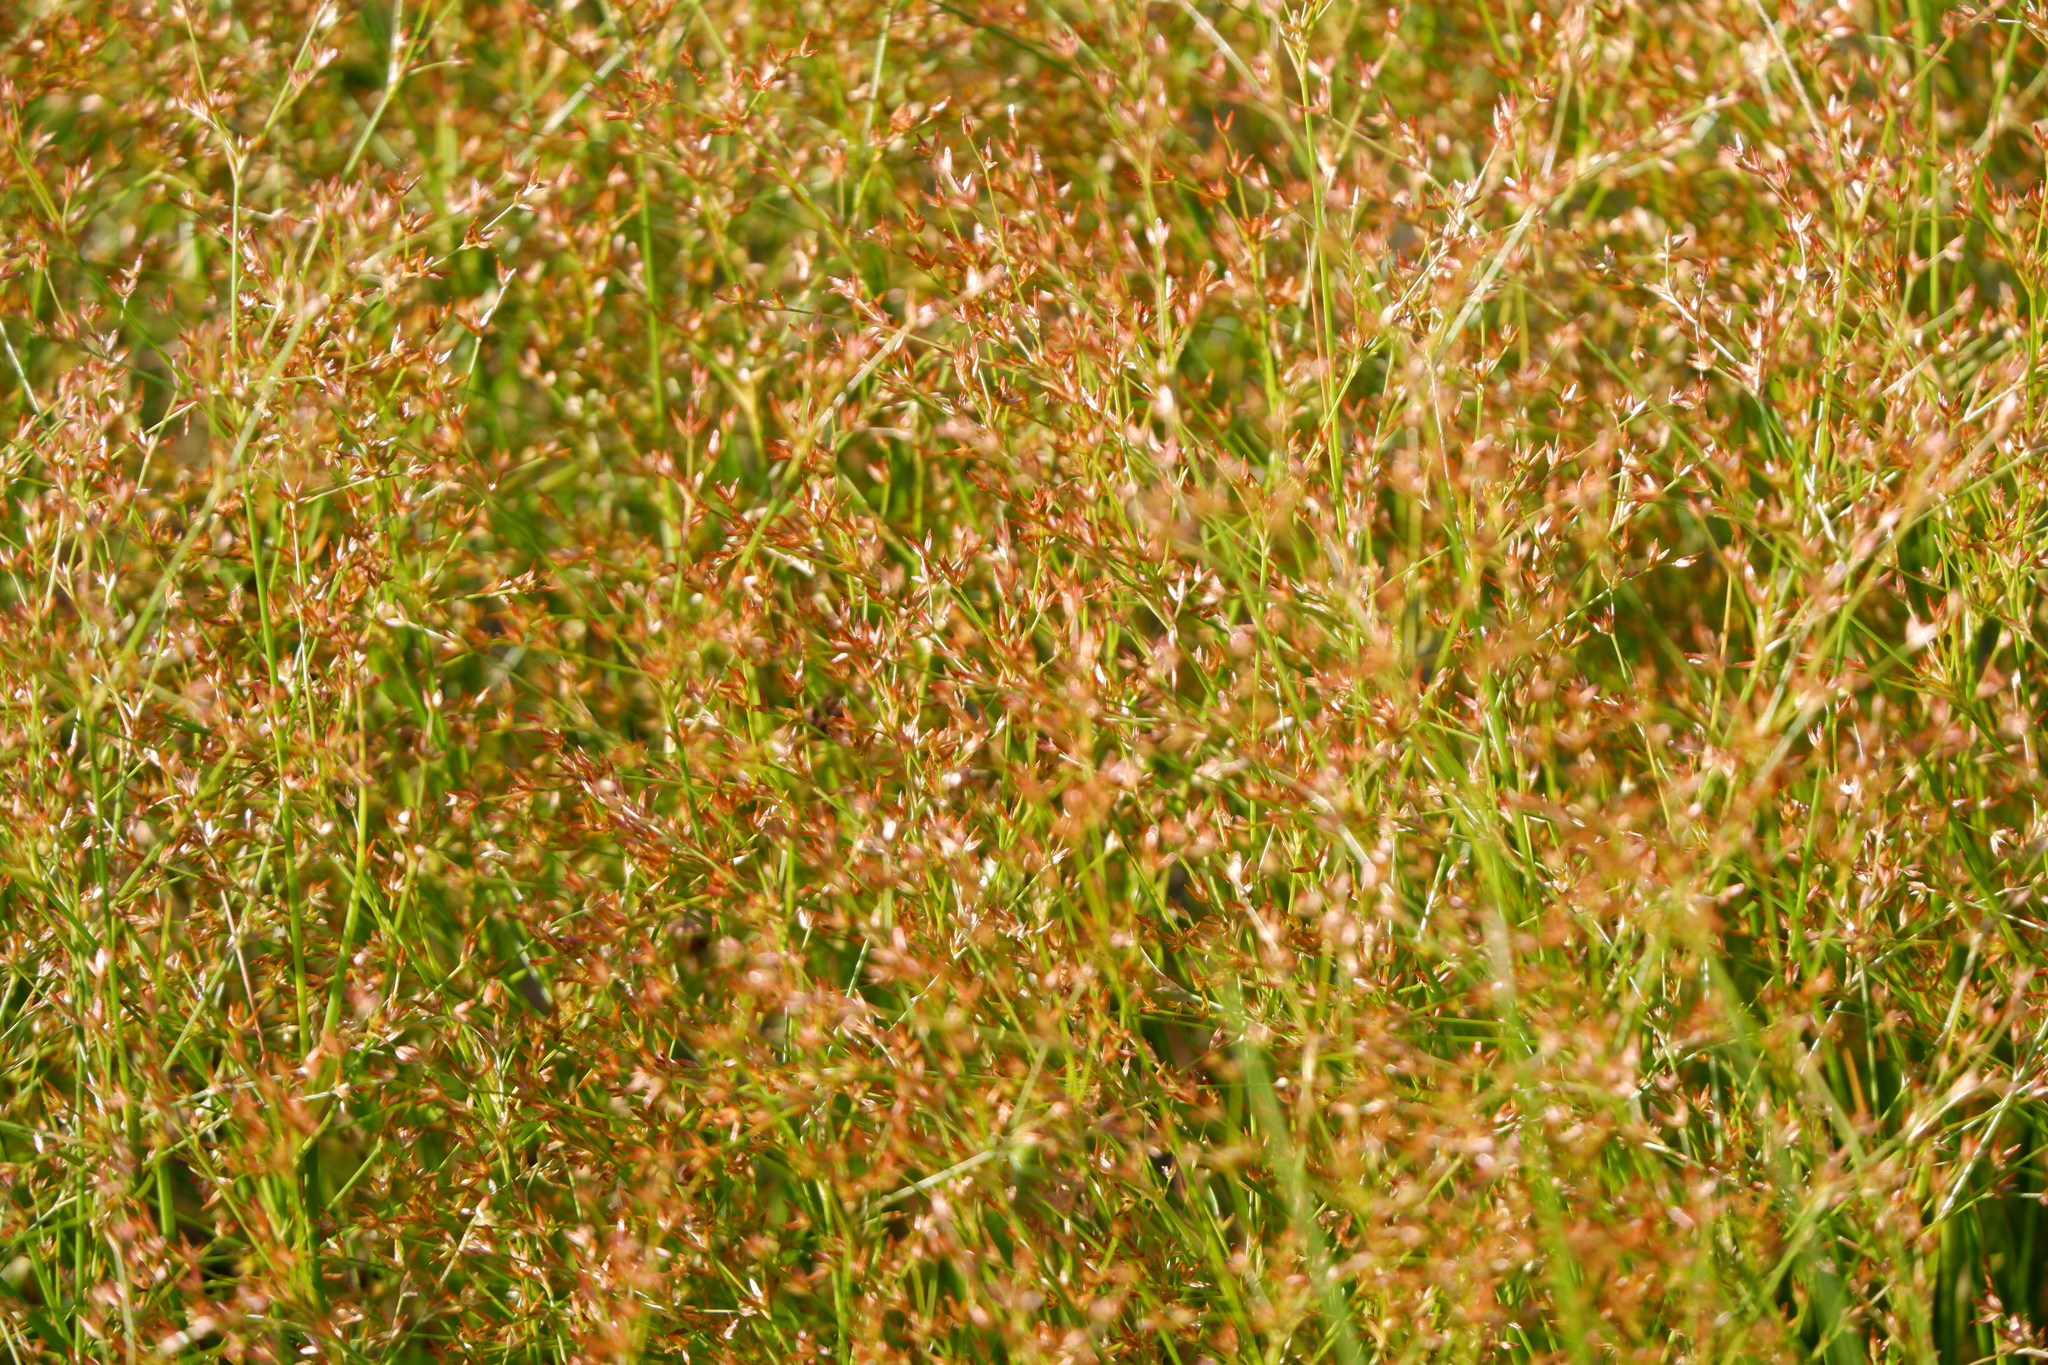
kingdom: Plantae
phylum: Tracheophyta
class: Liliopsida
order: Poales
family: Juncaceae
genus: Juncus
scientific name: Juncus diffusissimus
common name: Slimpod rush
